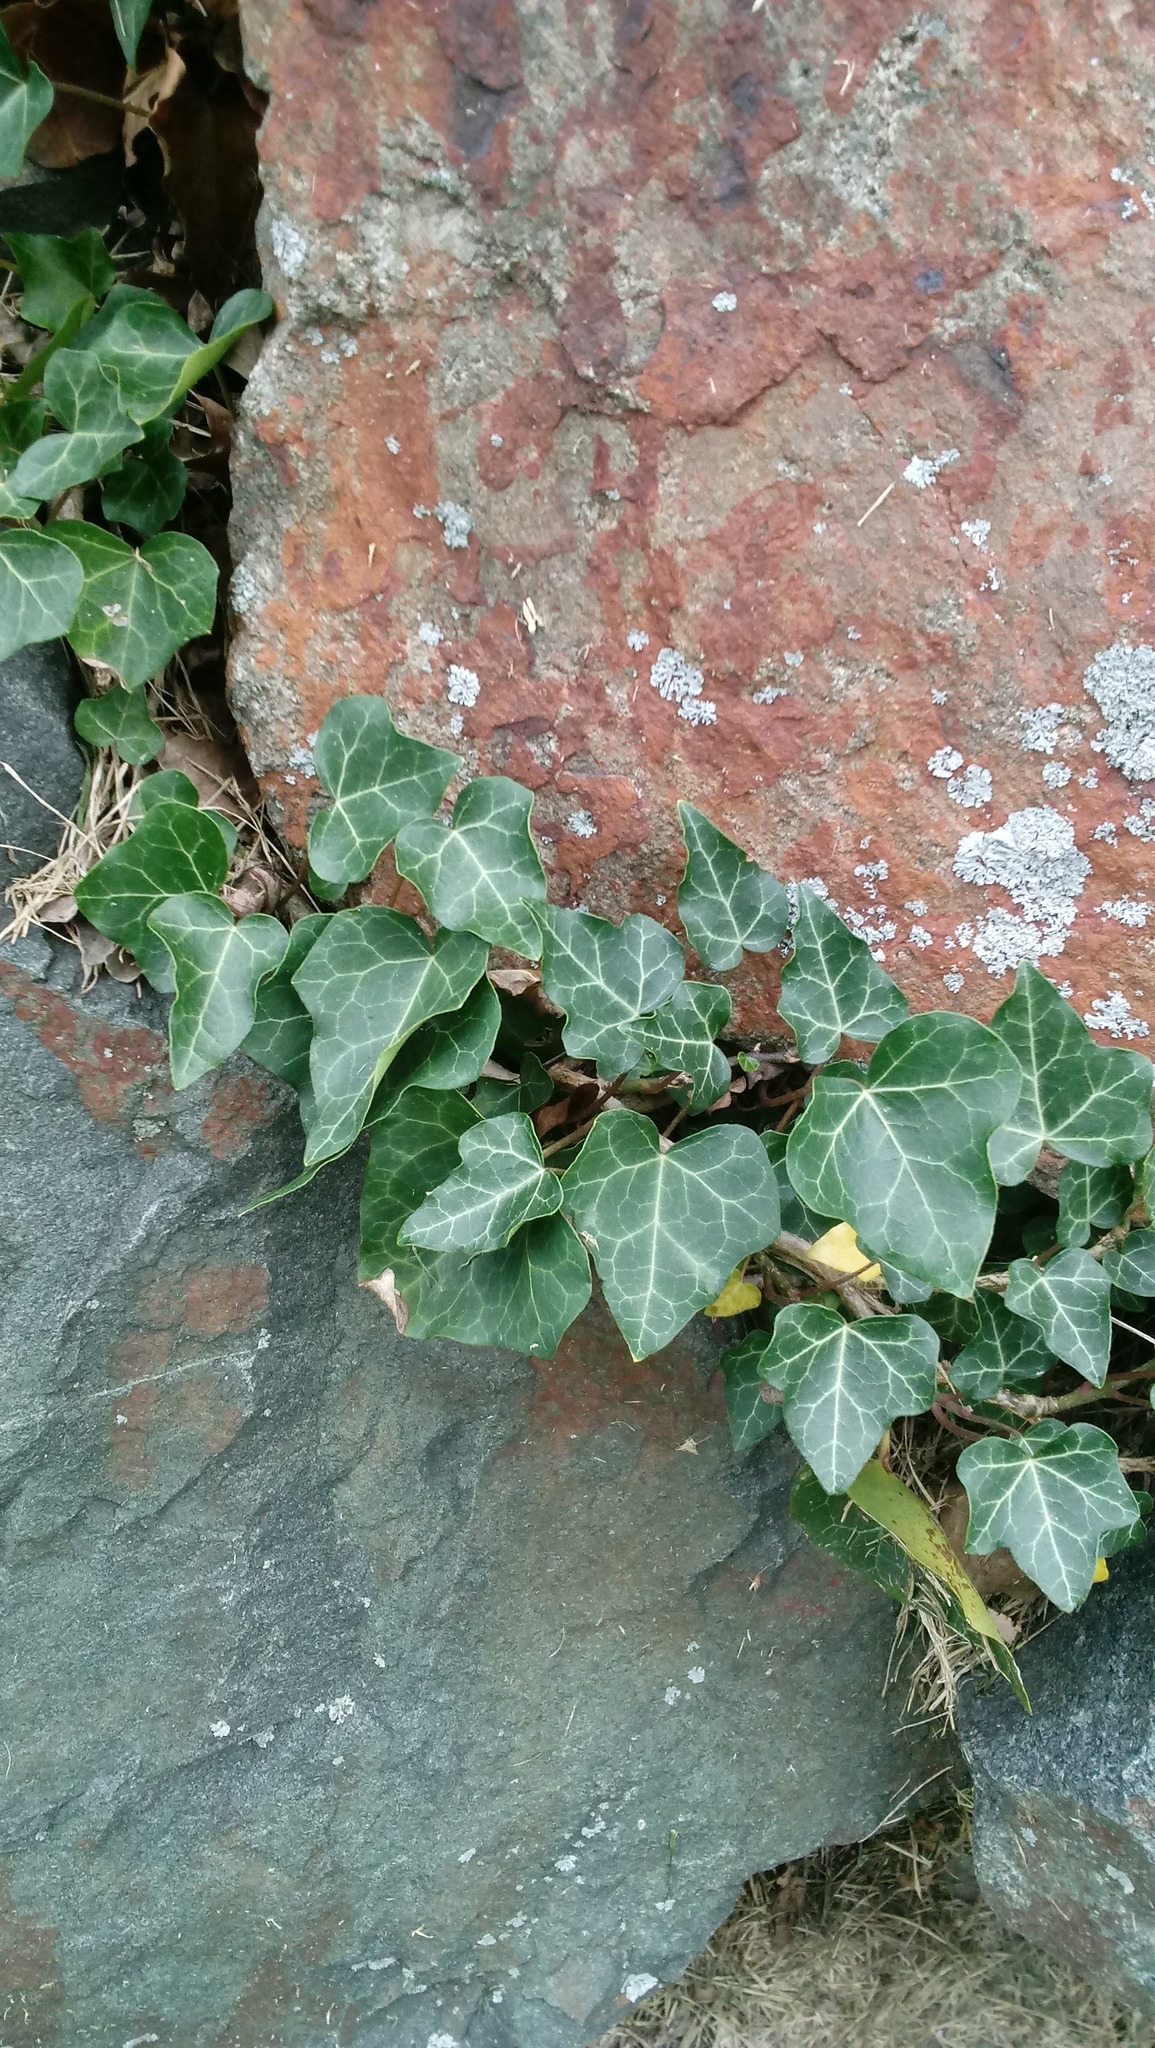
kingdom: Plantae
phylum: Tracheophyta
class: Magnoliopsida
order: Apiales
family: Araliaceae
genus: Hedera
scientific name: Hedera helix
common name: Ivy
